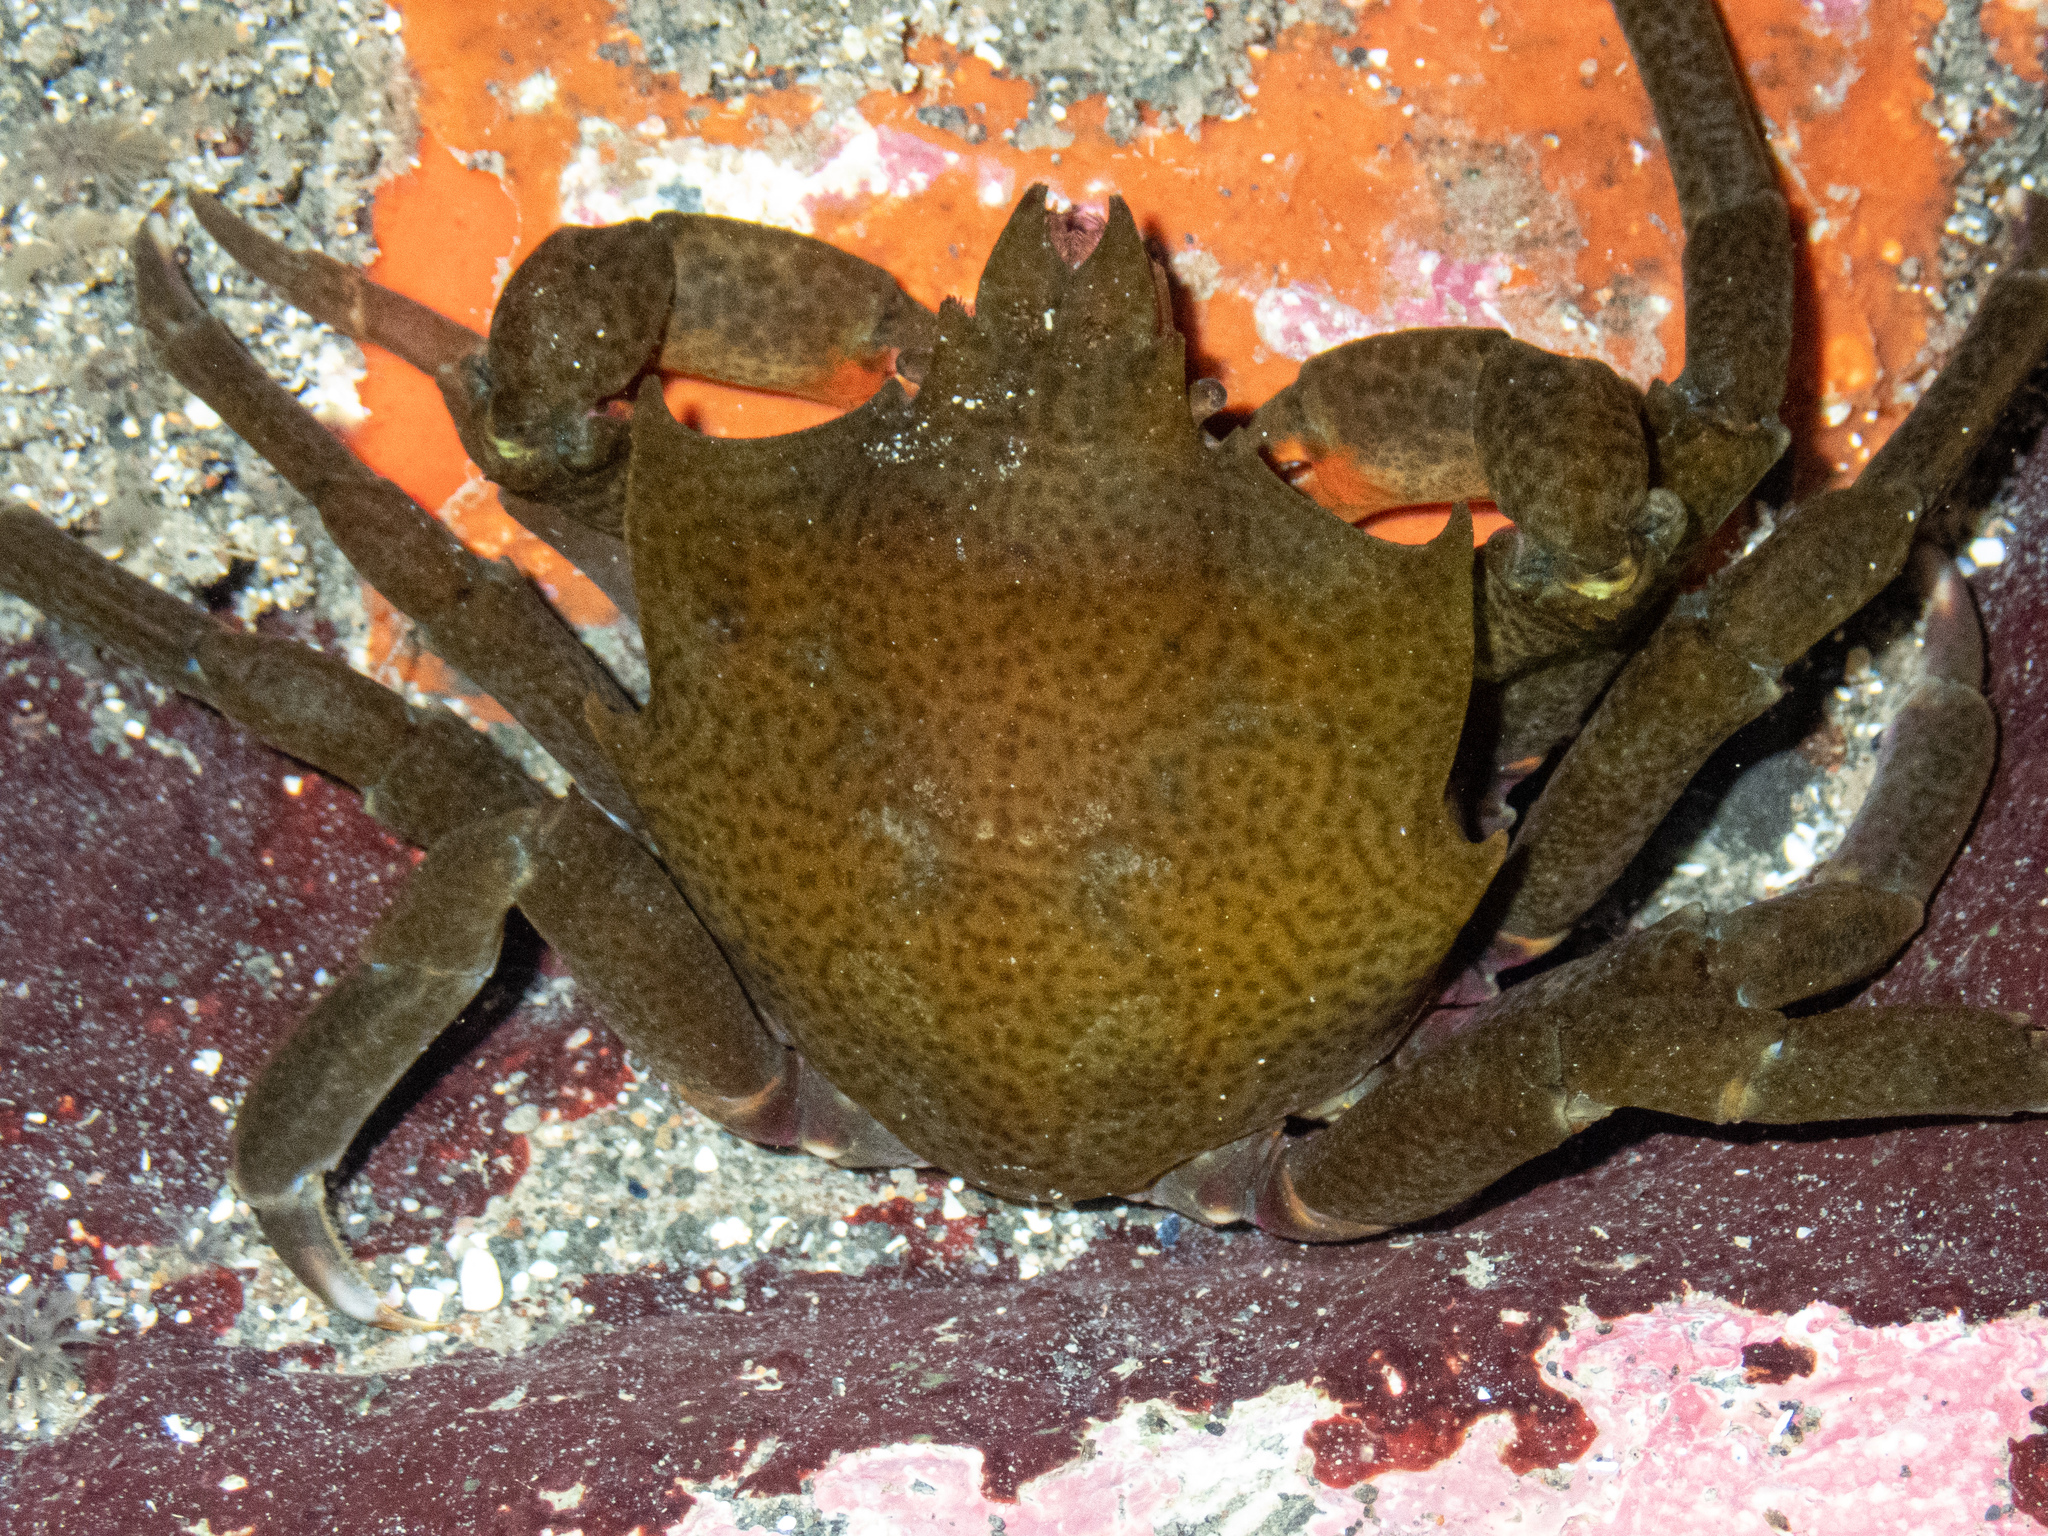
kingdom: Animalia
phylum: Arthropoda
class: Malacostraca
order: Decapoda
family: Epialtidae
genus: Pugettia
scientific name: Pugettia producta
